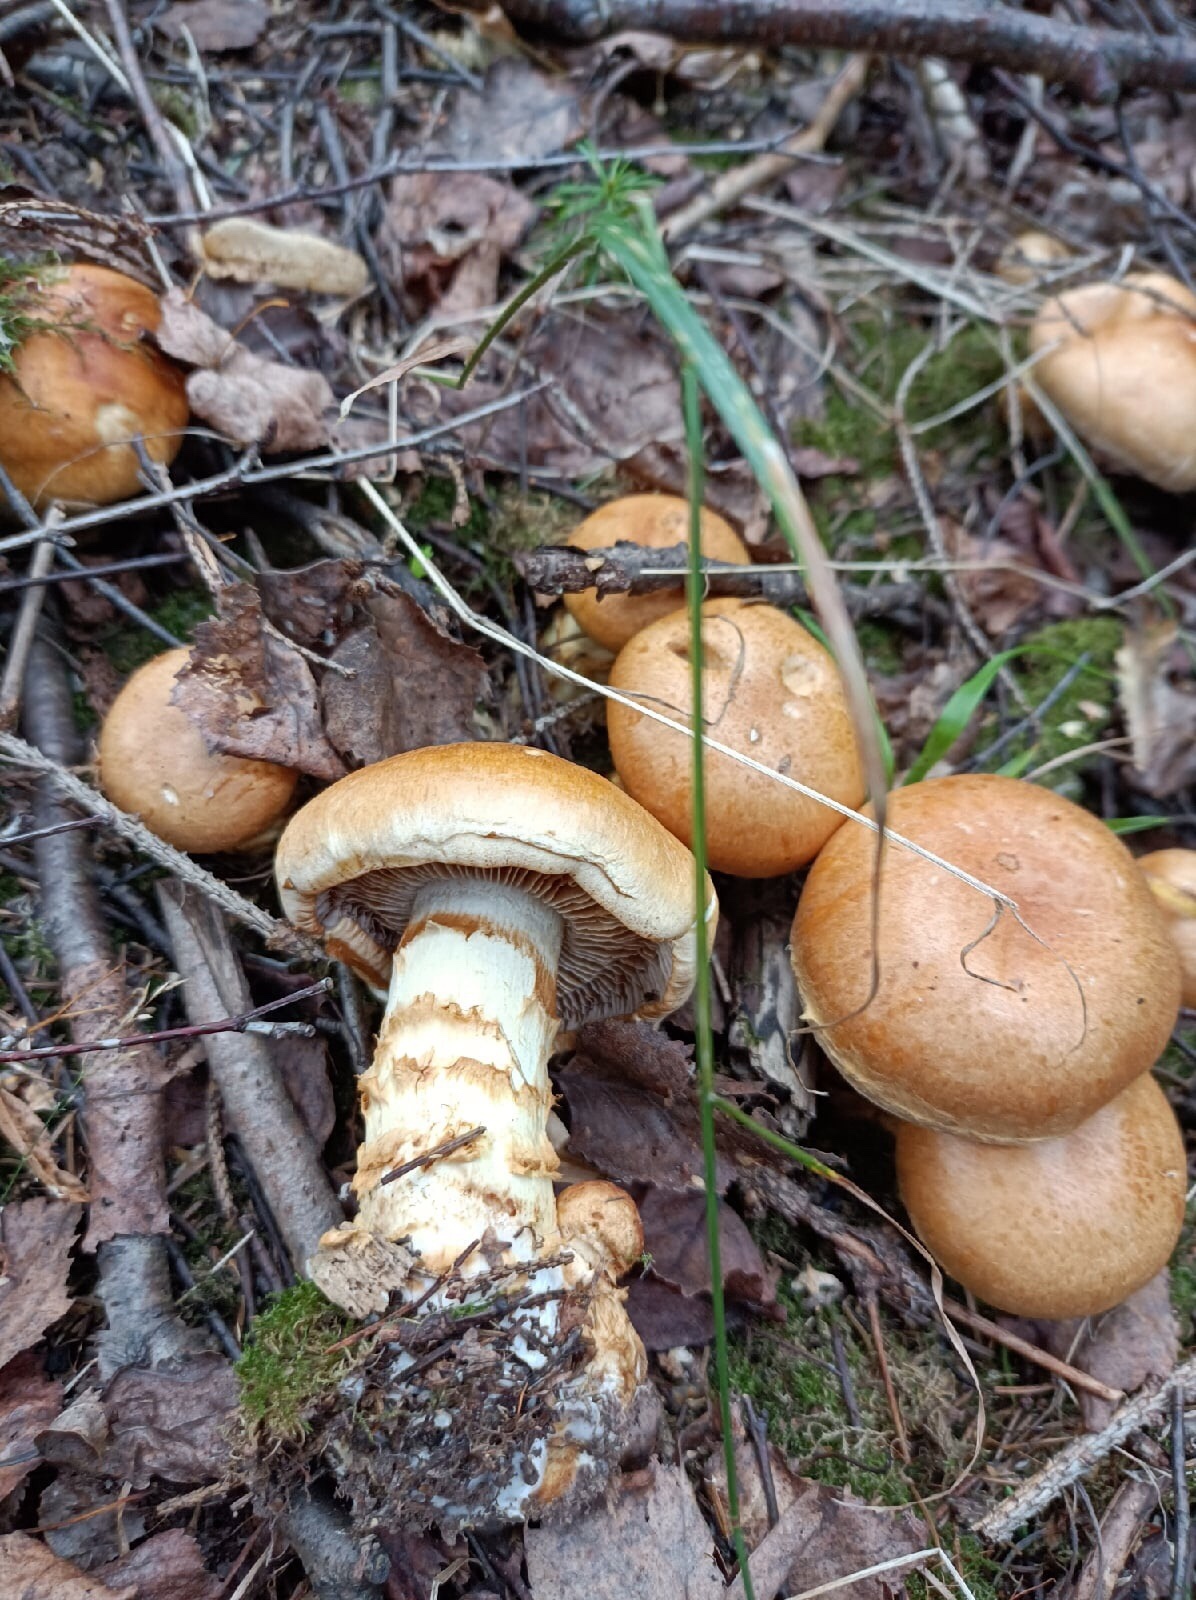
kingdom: Fungi
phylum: Basidiomycota
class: Agaricomycetes
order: Agaricales
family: Cortinariaceae
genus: Phlegmacium
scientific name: Phlegmacium triumphans
